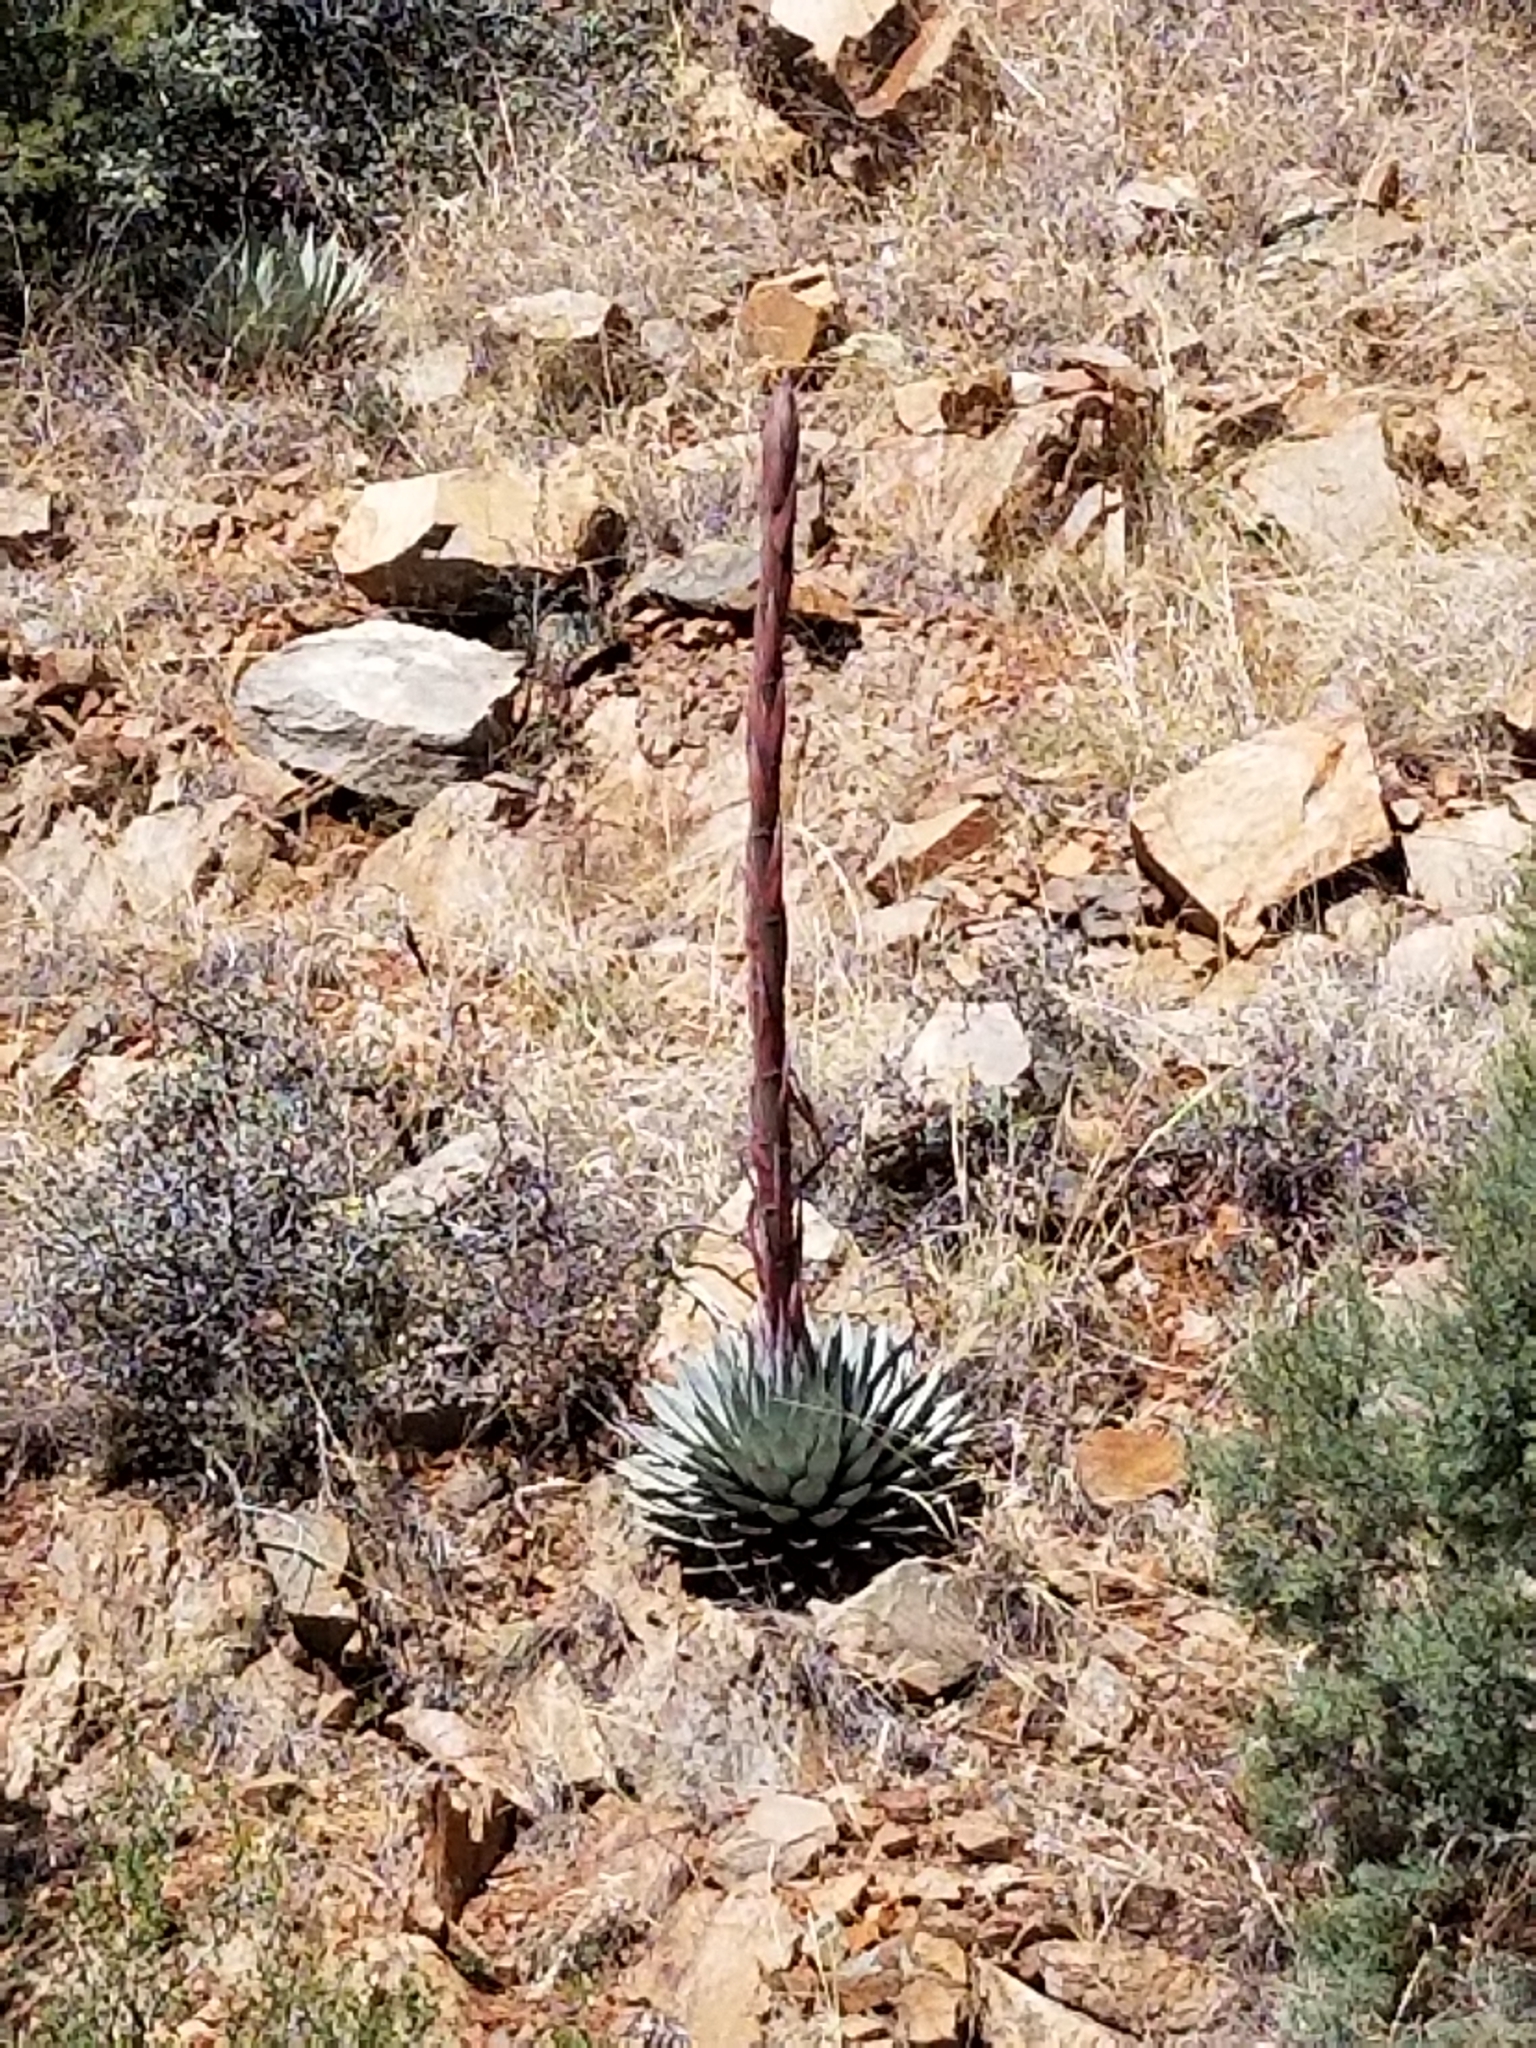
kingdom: Plantae
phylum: Tracheophyta
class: Liliopsida
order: Asparagales
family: Asparagaceae
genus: Agave
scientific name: Agave parryi
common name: Parry's agave
